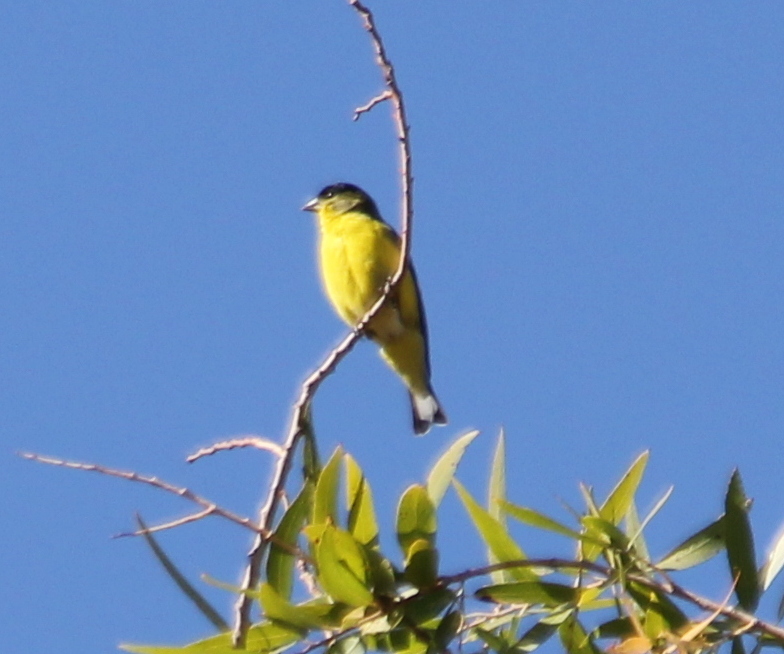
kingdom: Animalia
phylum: Chordata
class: Aves
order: Passeriformes
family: Fringillidae
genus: Spinus
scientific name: Spinus psaltria
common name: Lesser goldfinch
